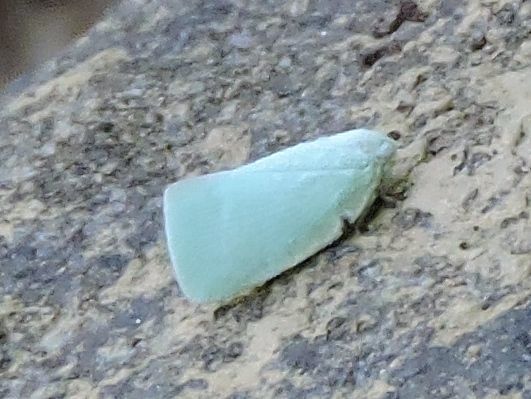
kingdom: Animalia
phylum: Arthropoda
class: Insecta
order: Hemiptera
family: Flatidae
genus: Flatormenis
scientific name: Flatormenis proxima
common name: Northern flatid planthopper
